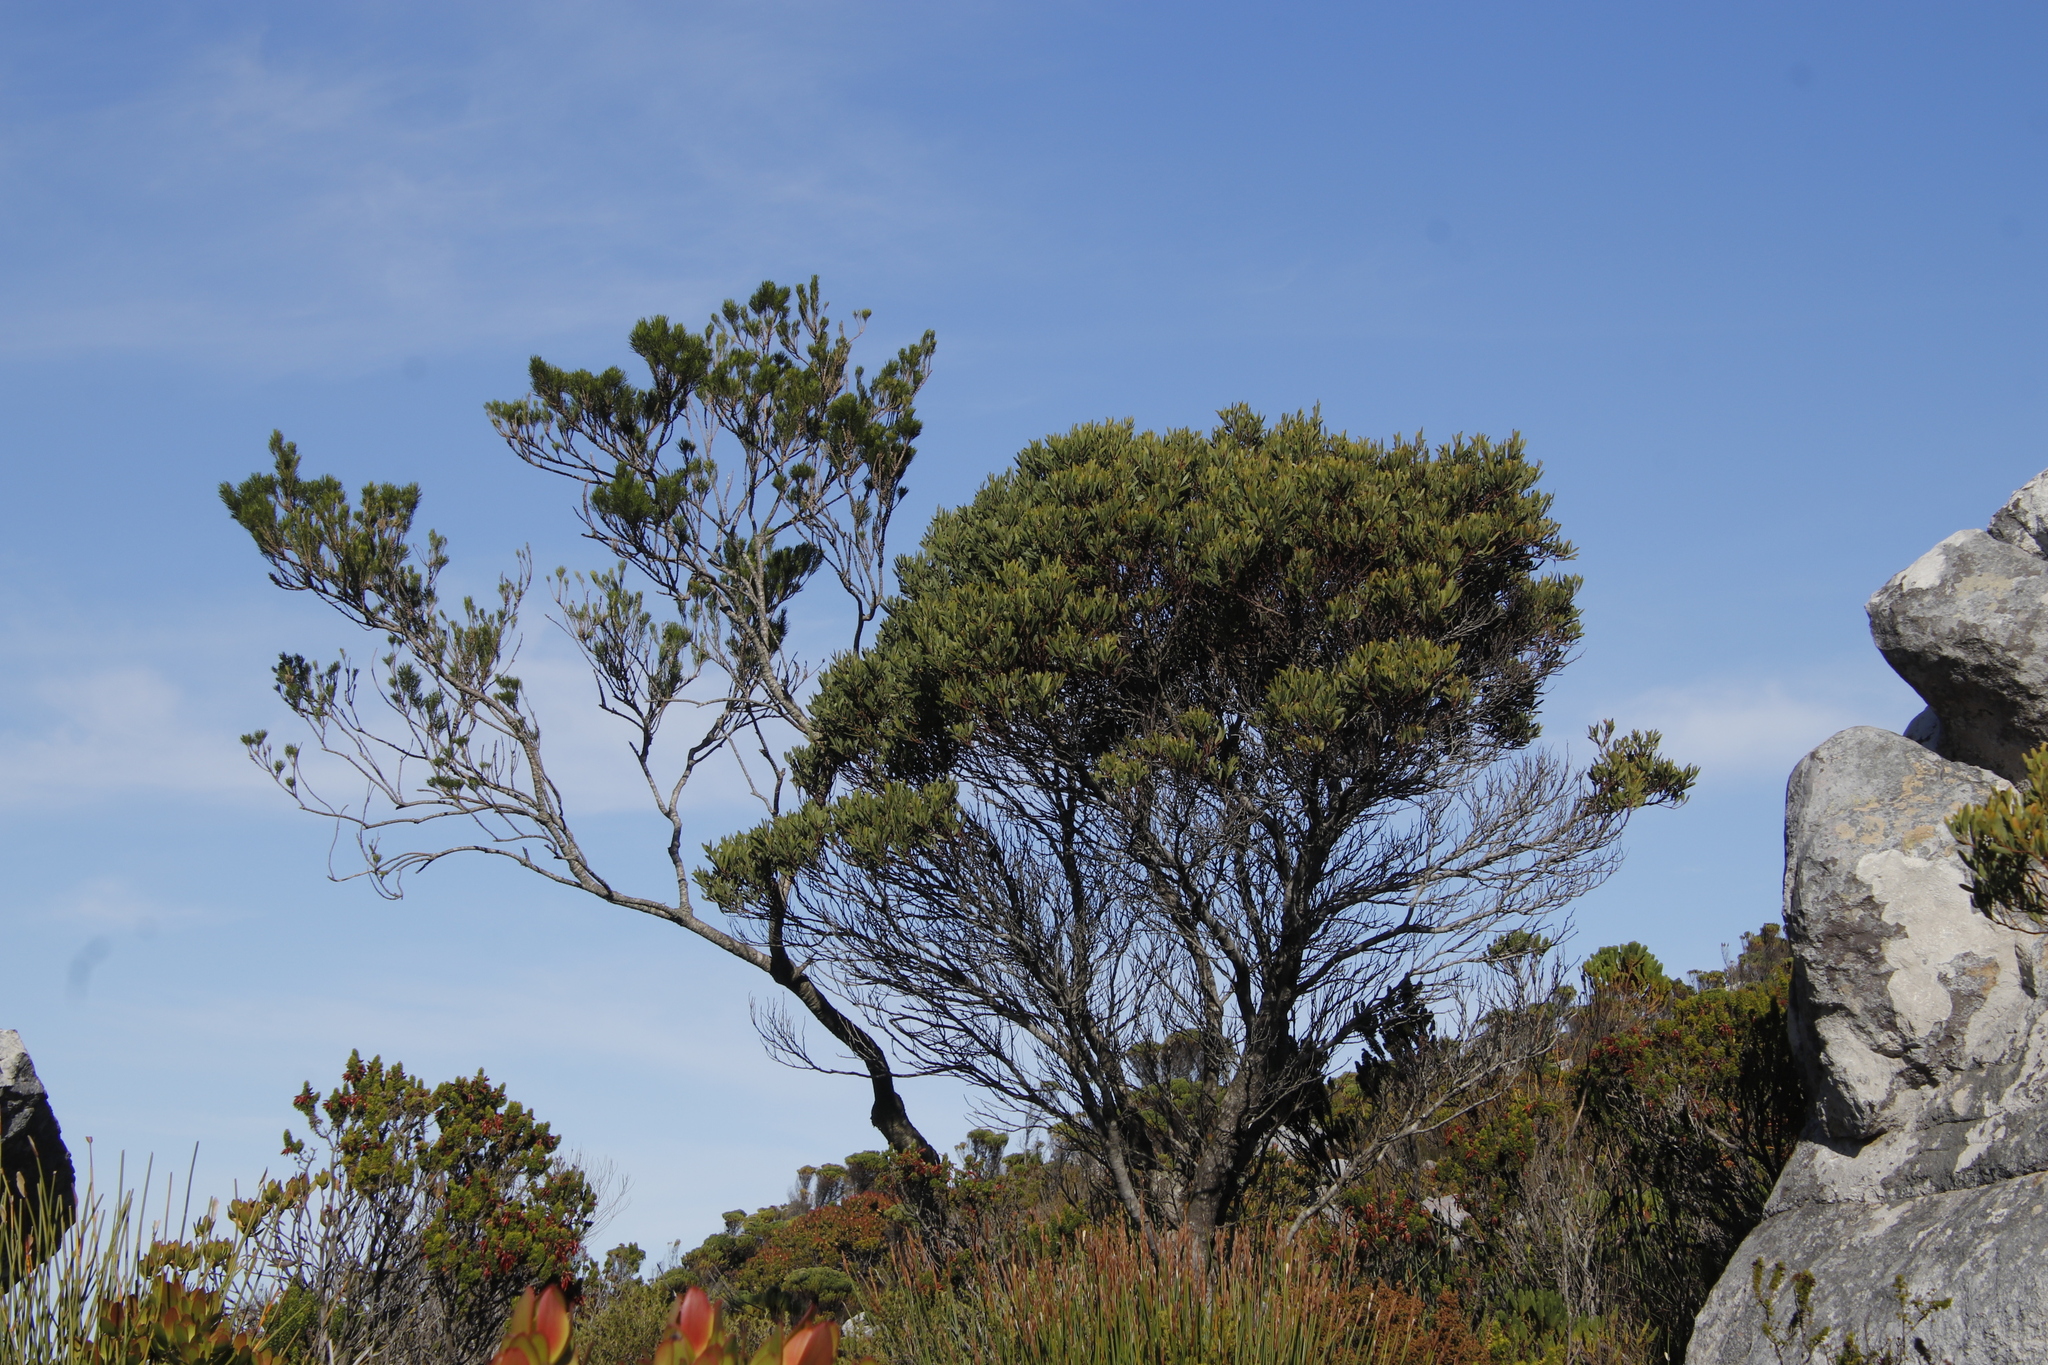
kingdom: Plantae
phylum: Tracheophyta
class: Magnoliopsida
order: Fabales
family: Fabaceae
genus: Acacia
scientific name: Acacia cyclops
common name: Coastal wattle
